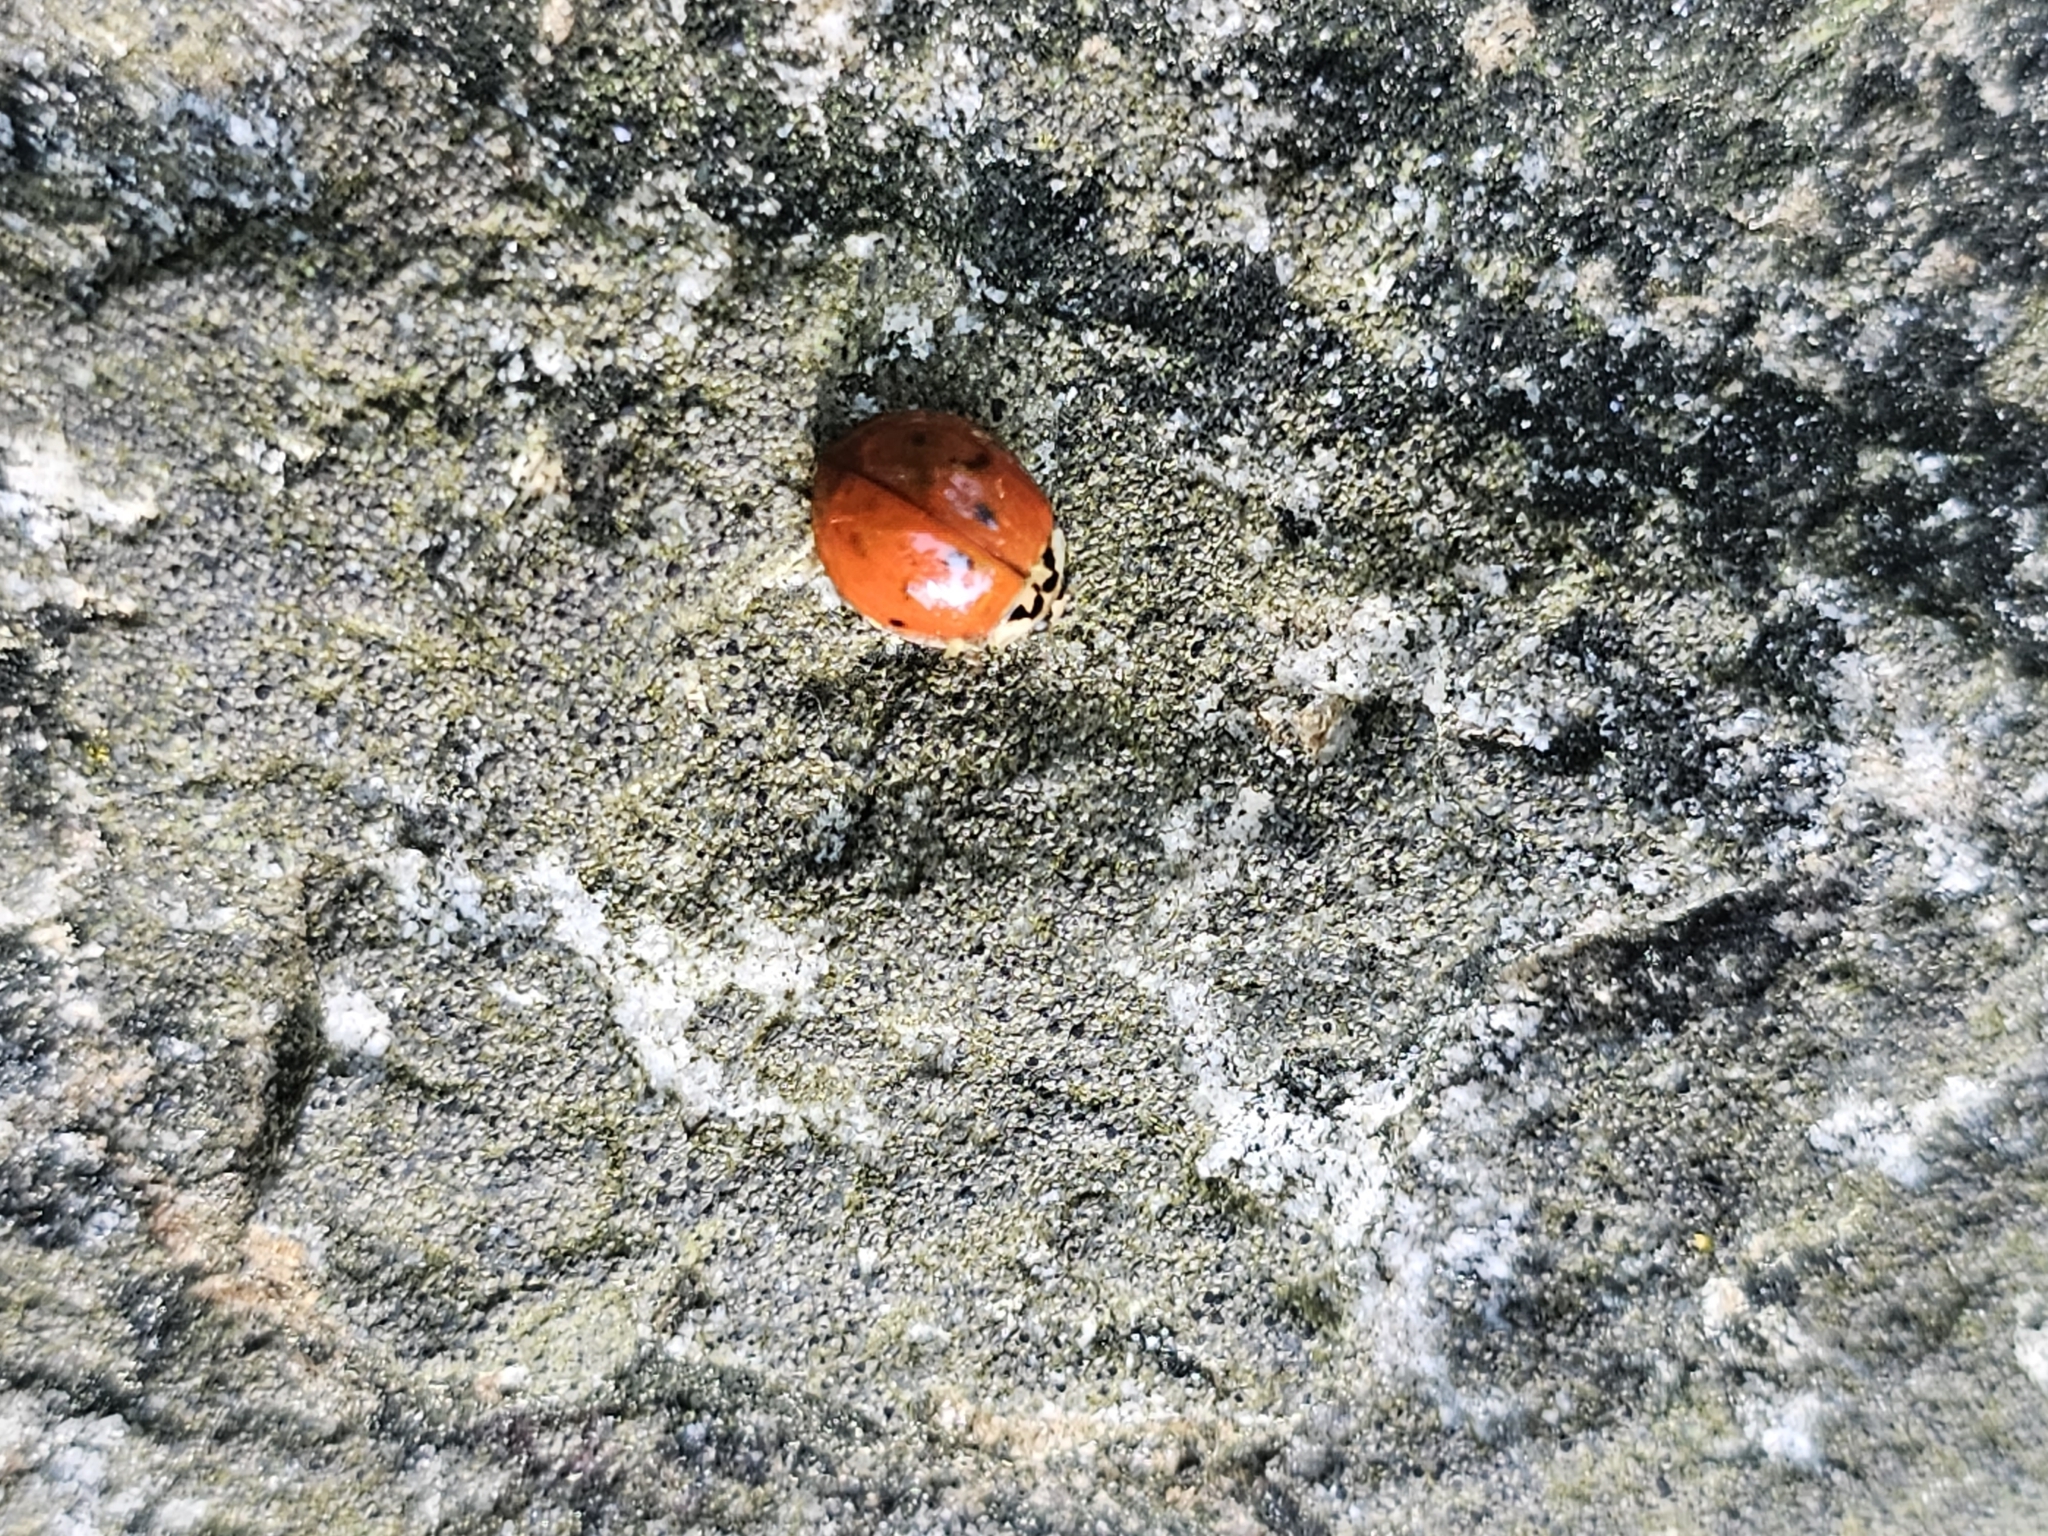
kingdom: Animalia
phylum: Arthropoda
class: Insecta
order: Coleoptera
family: Coccinellidae
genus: Harmonia
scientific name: Harmonia axyridis
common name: Harlequin ladybird
